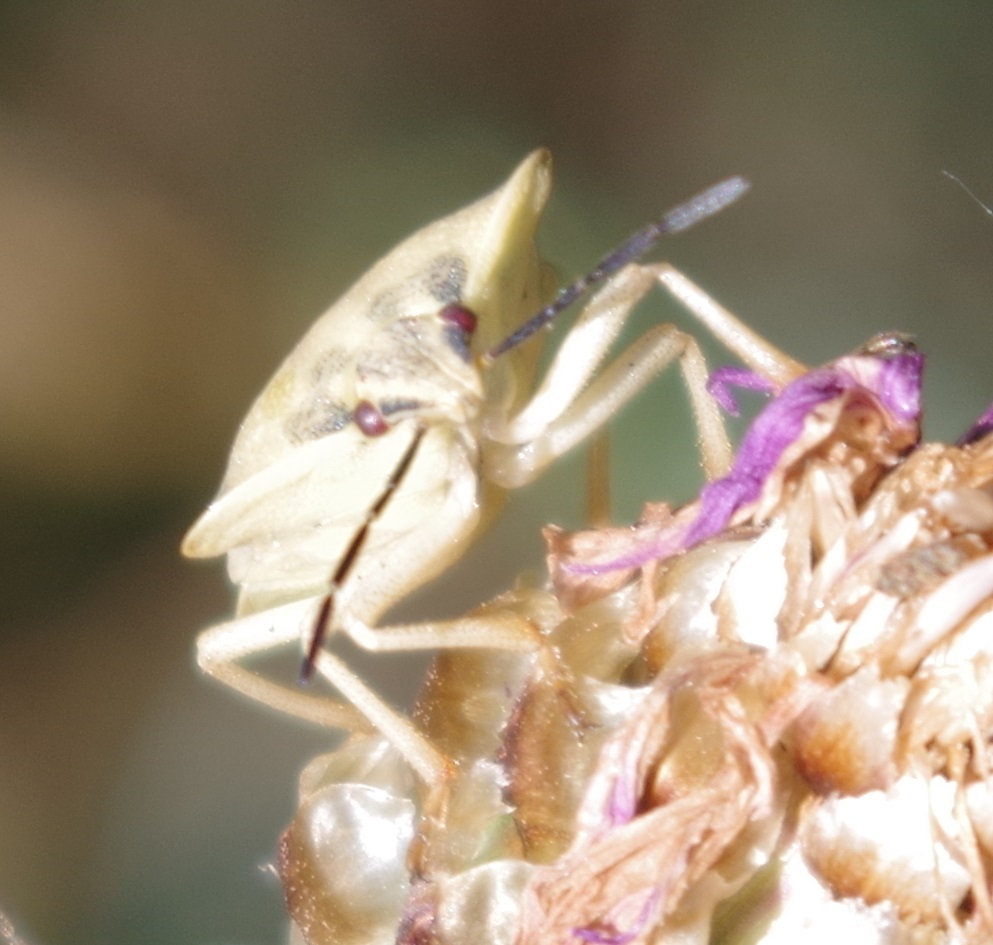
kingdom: Animalia
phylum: Arthropoda
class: Insecta
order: Hemiptera
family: Pentatomidae
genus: Carpocoris
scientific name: Carpocoris fuscispinus
